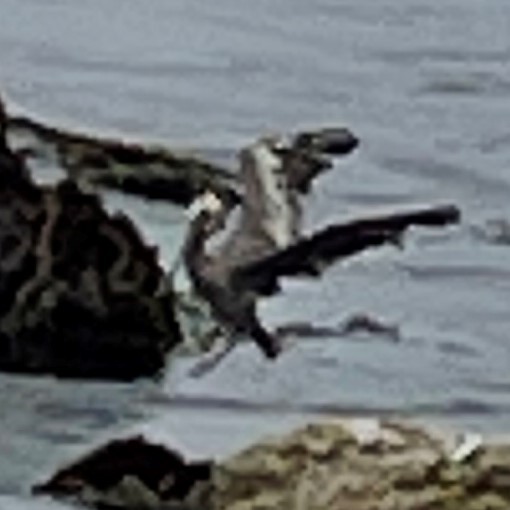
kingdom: Animalia
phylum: Chordata
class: Aves
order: Pelecaniformes
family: Pelecanidae
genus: Pelecanus
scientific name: Pelecanus occidentalis
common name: Brown pelican
